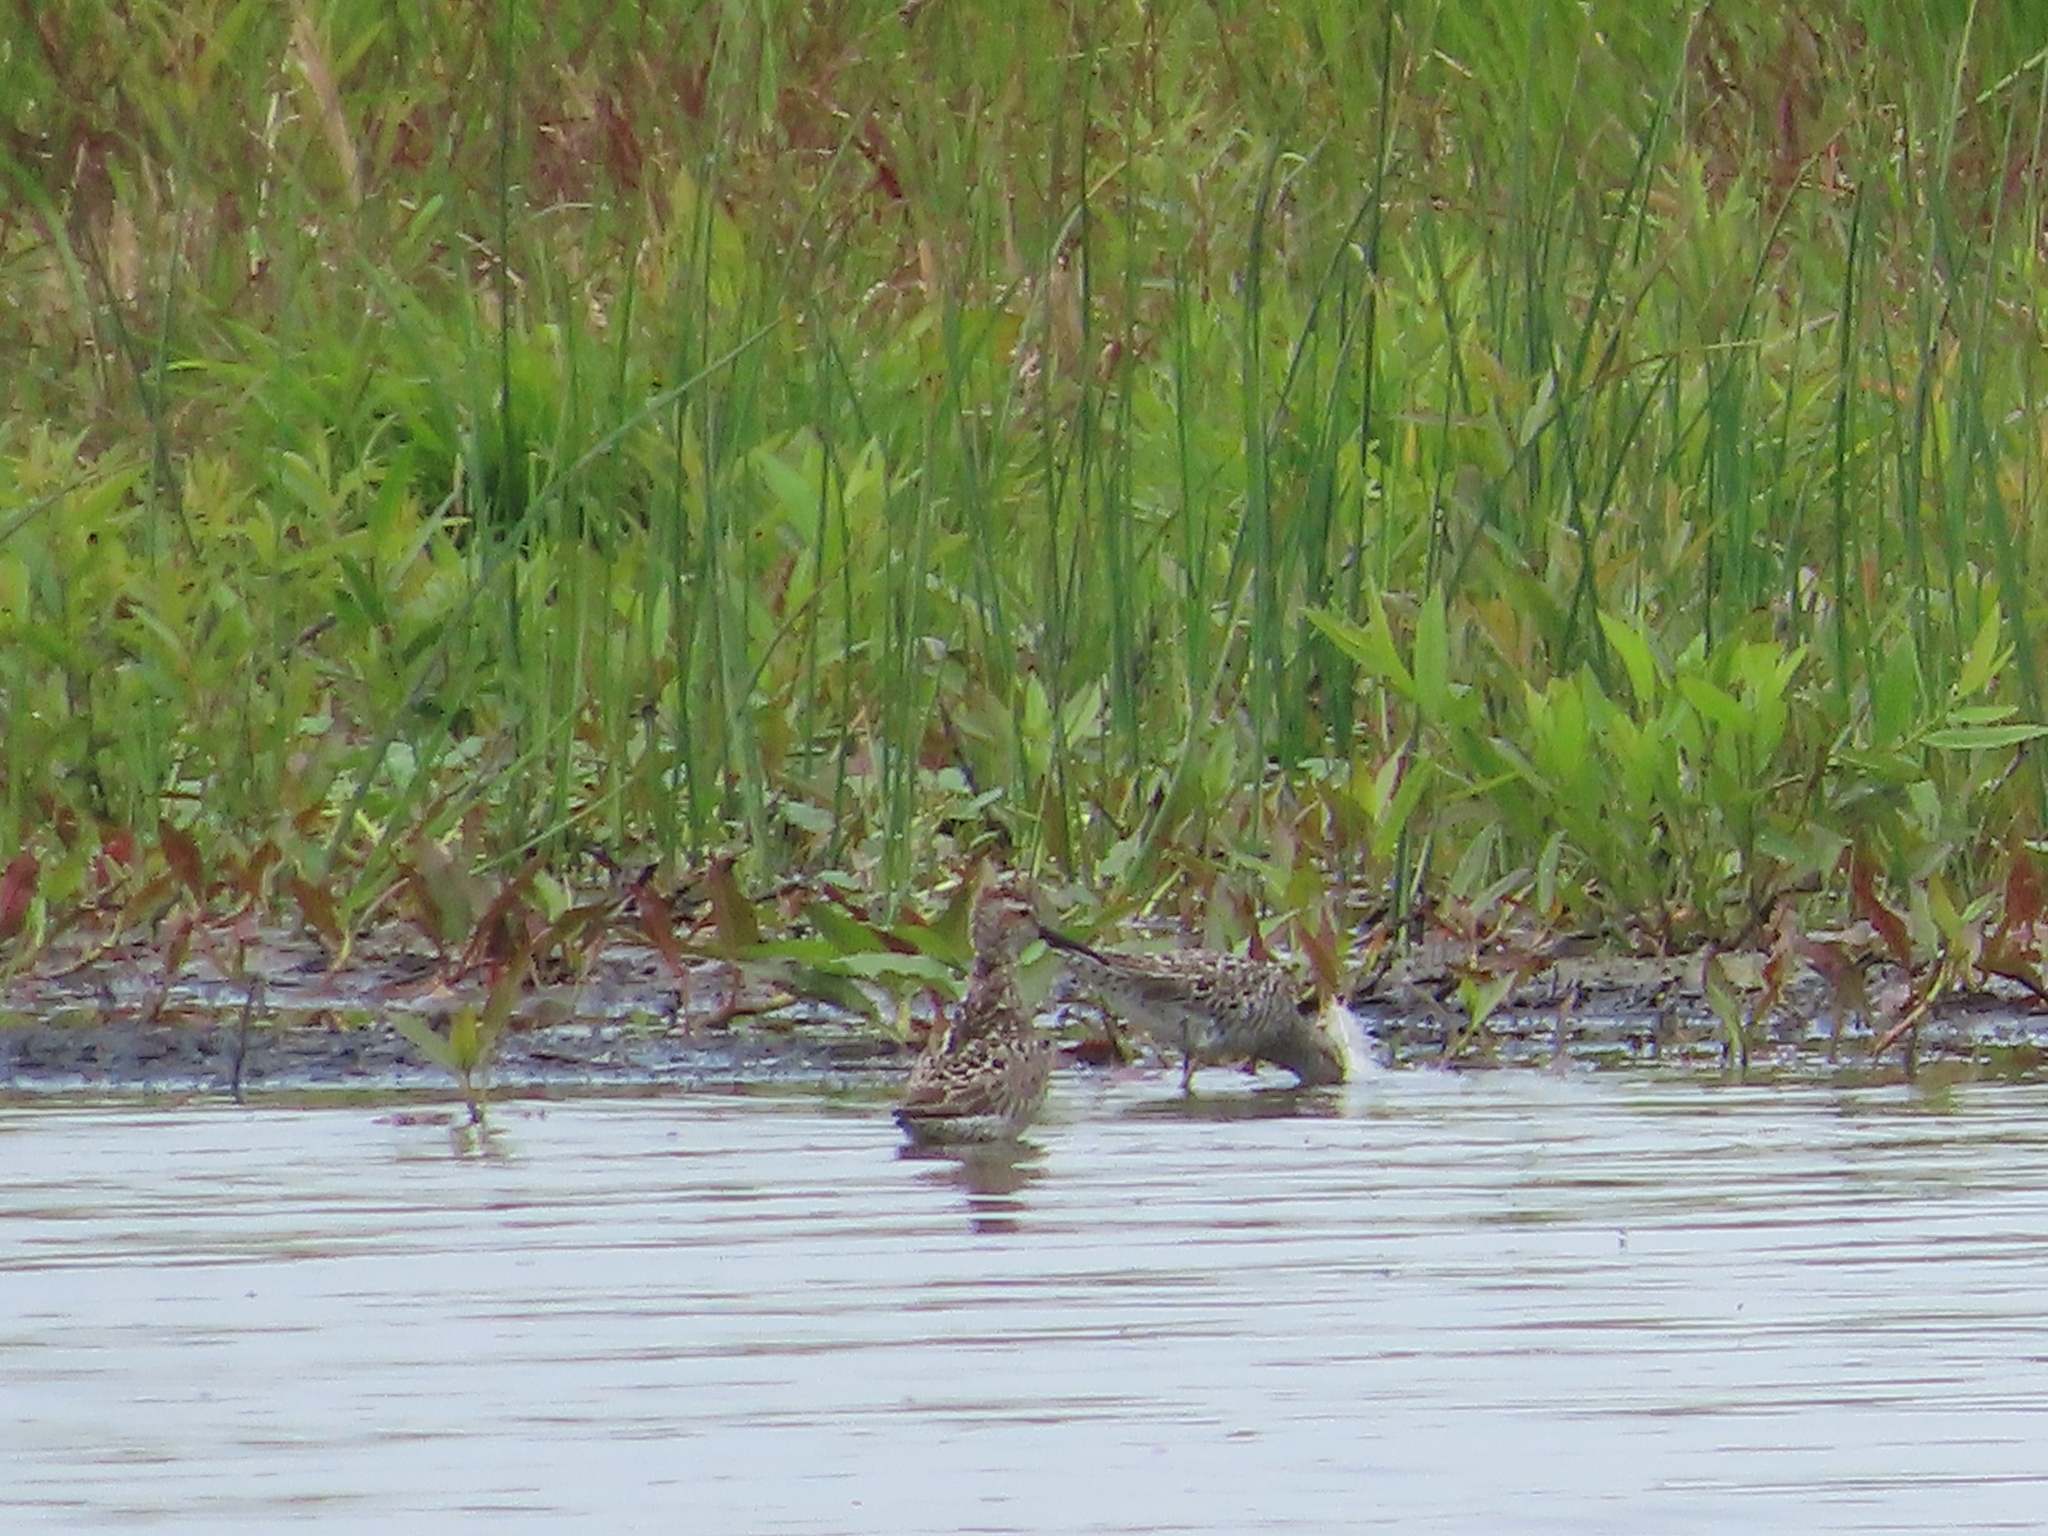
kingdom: Animalia
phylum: Chordata
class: Aves
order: Charadriiformes
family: Scolopacidae
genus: Calidris
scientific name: Calidris himantopus
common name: Stilt sandpiper
